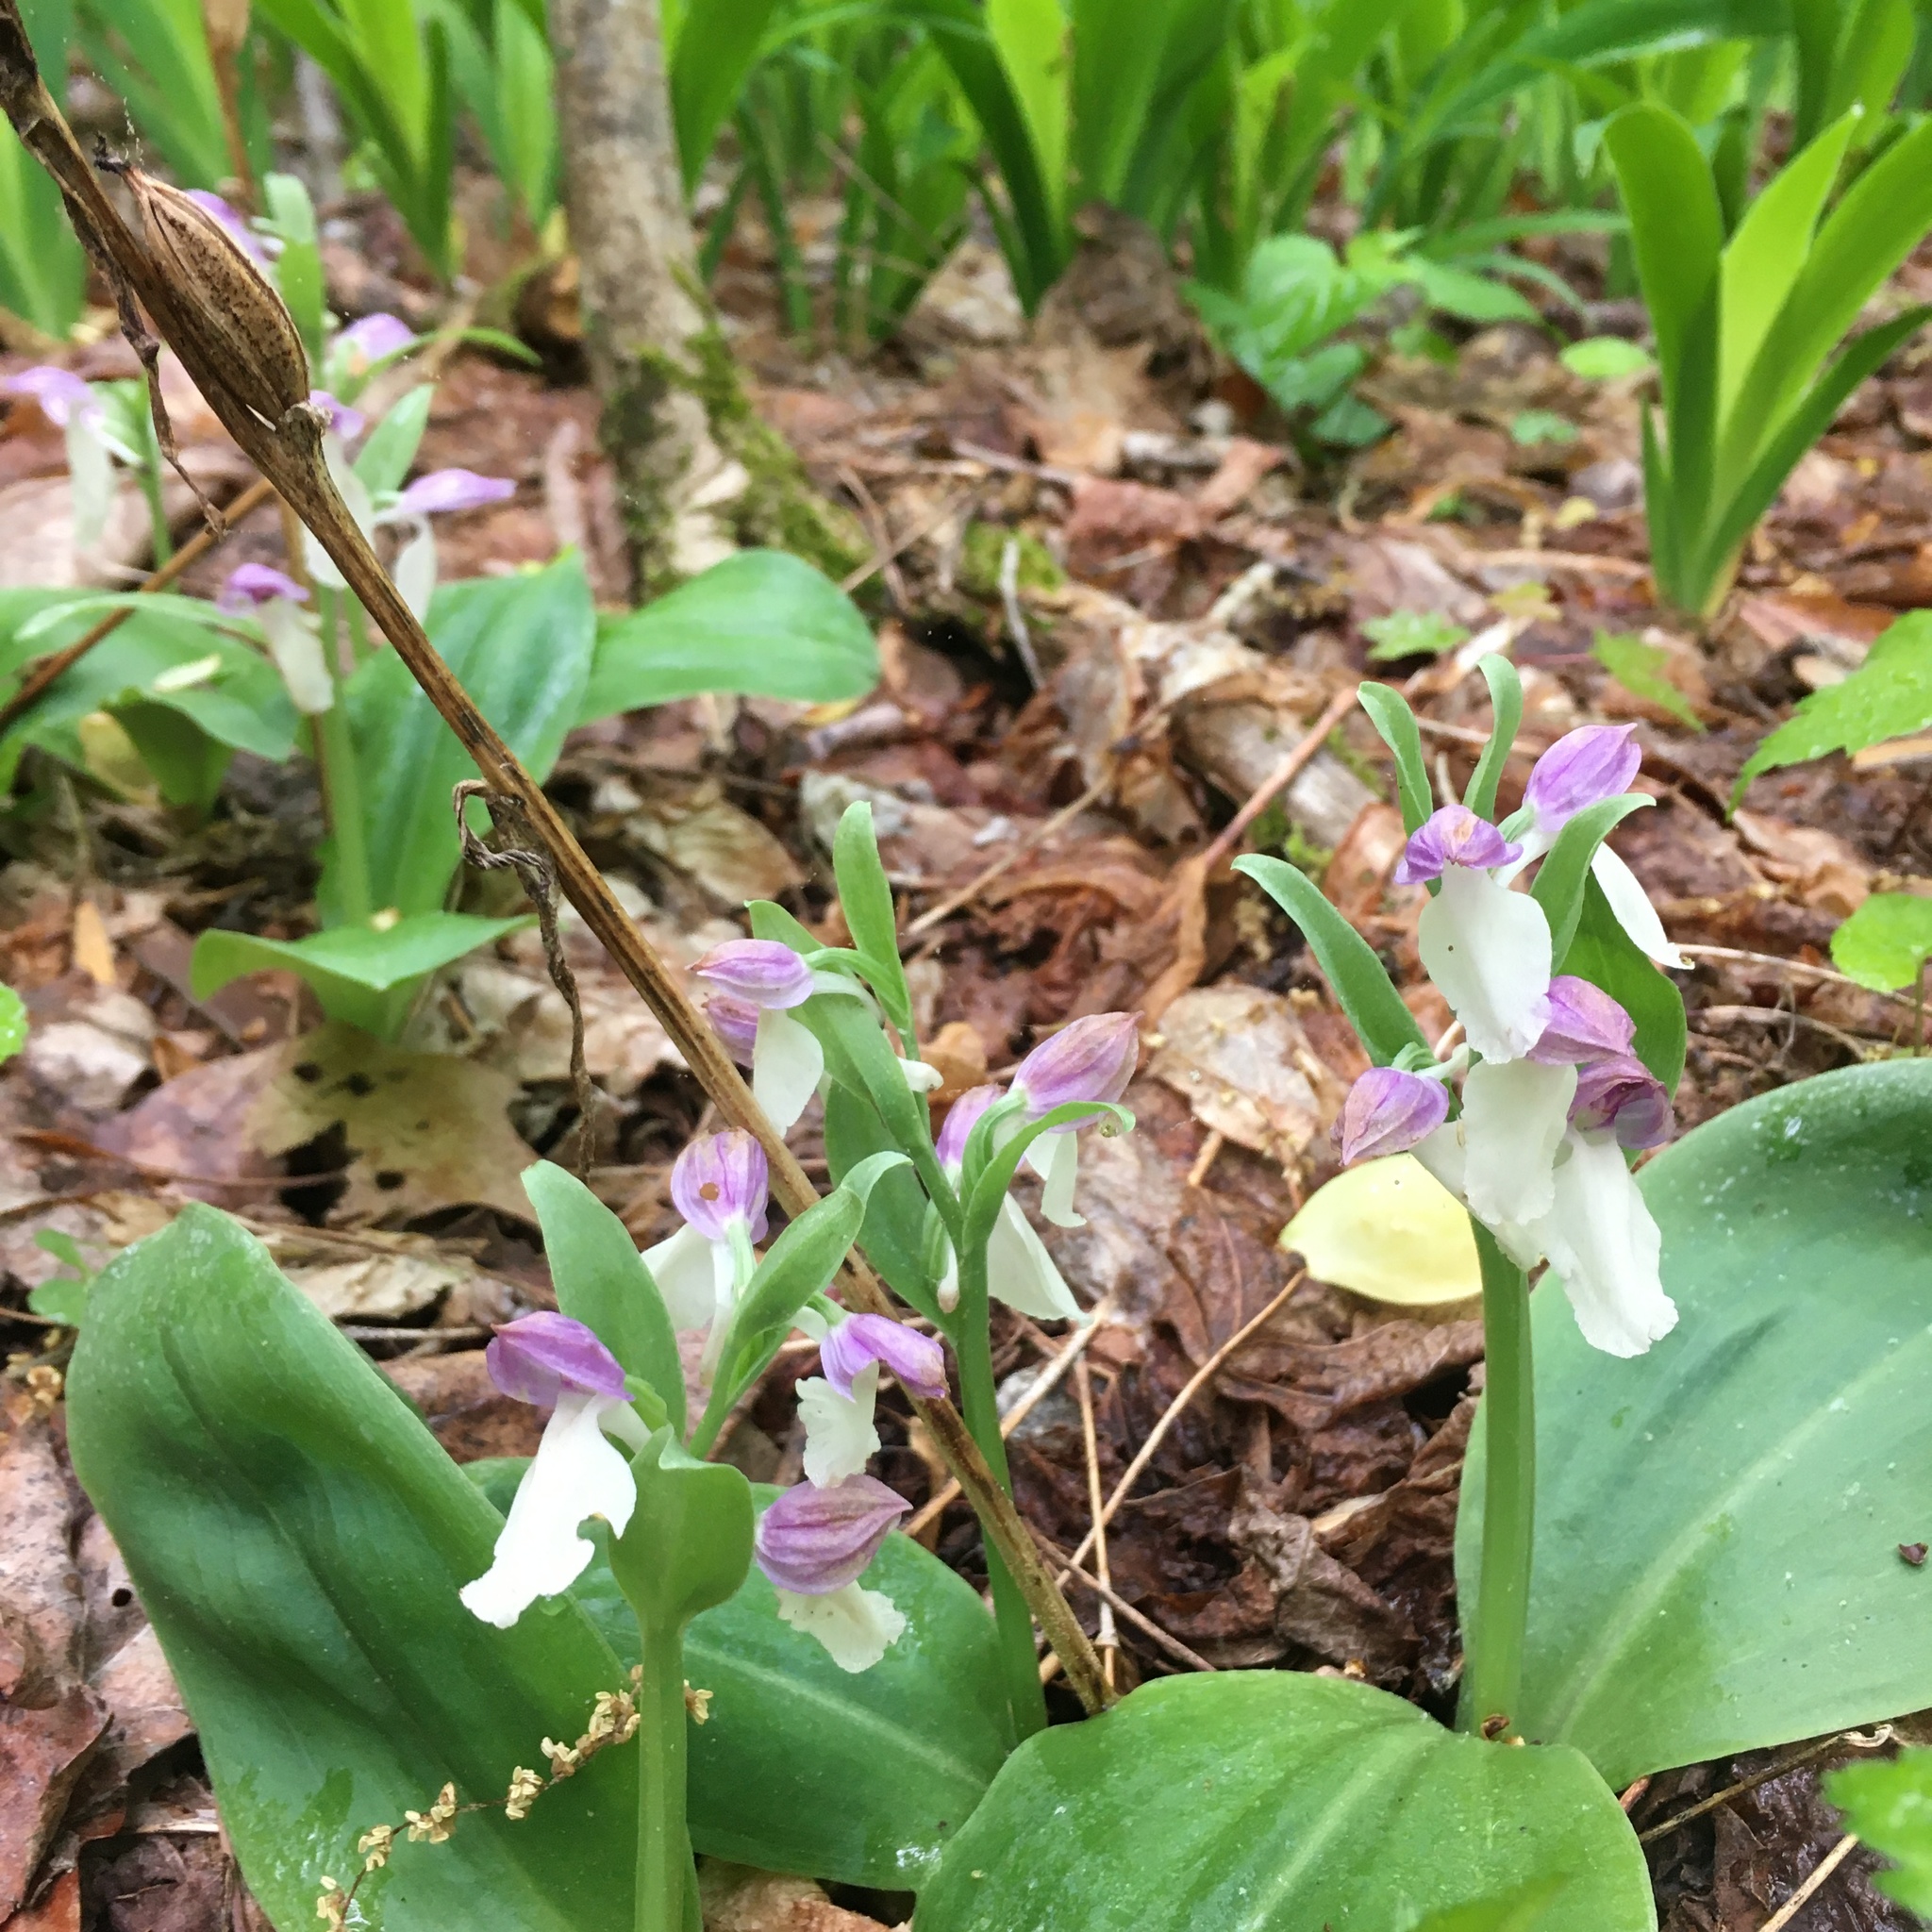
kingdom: Plantae
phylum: Tracheophyta
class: Liliopsida
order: Asparagales
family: Orchidaceae
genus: Galearis
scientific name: Galearis spectabilis
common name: Purple-hooded orchis
